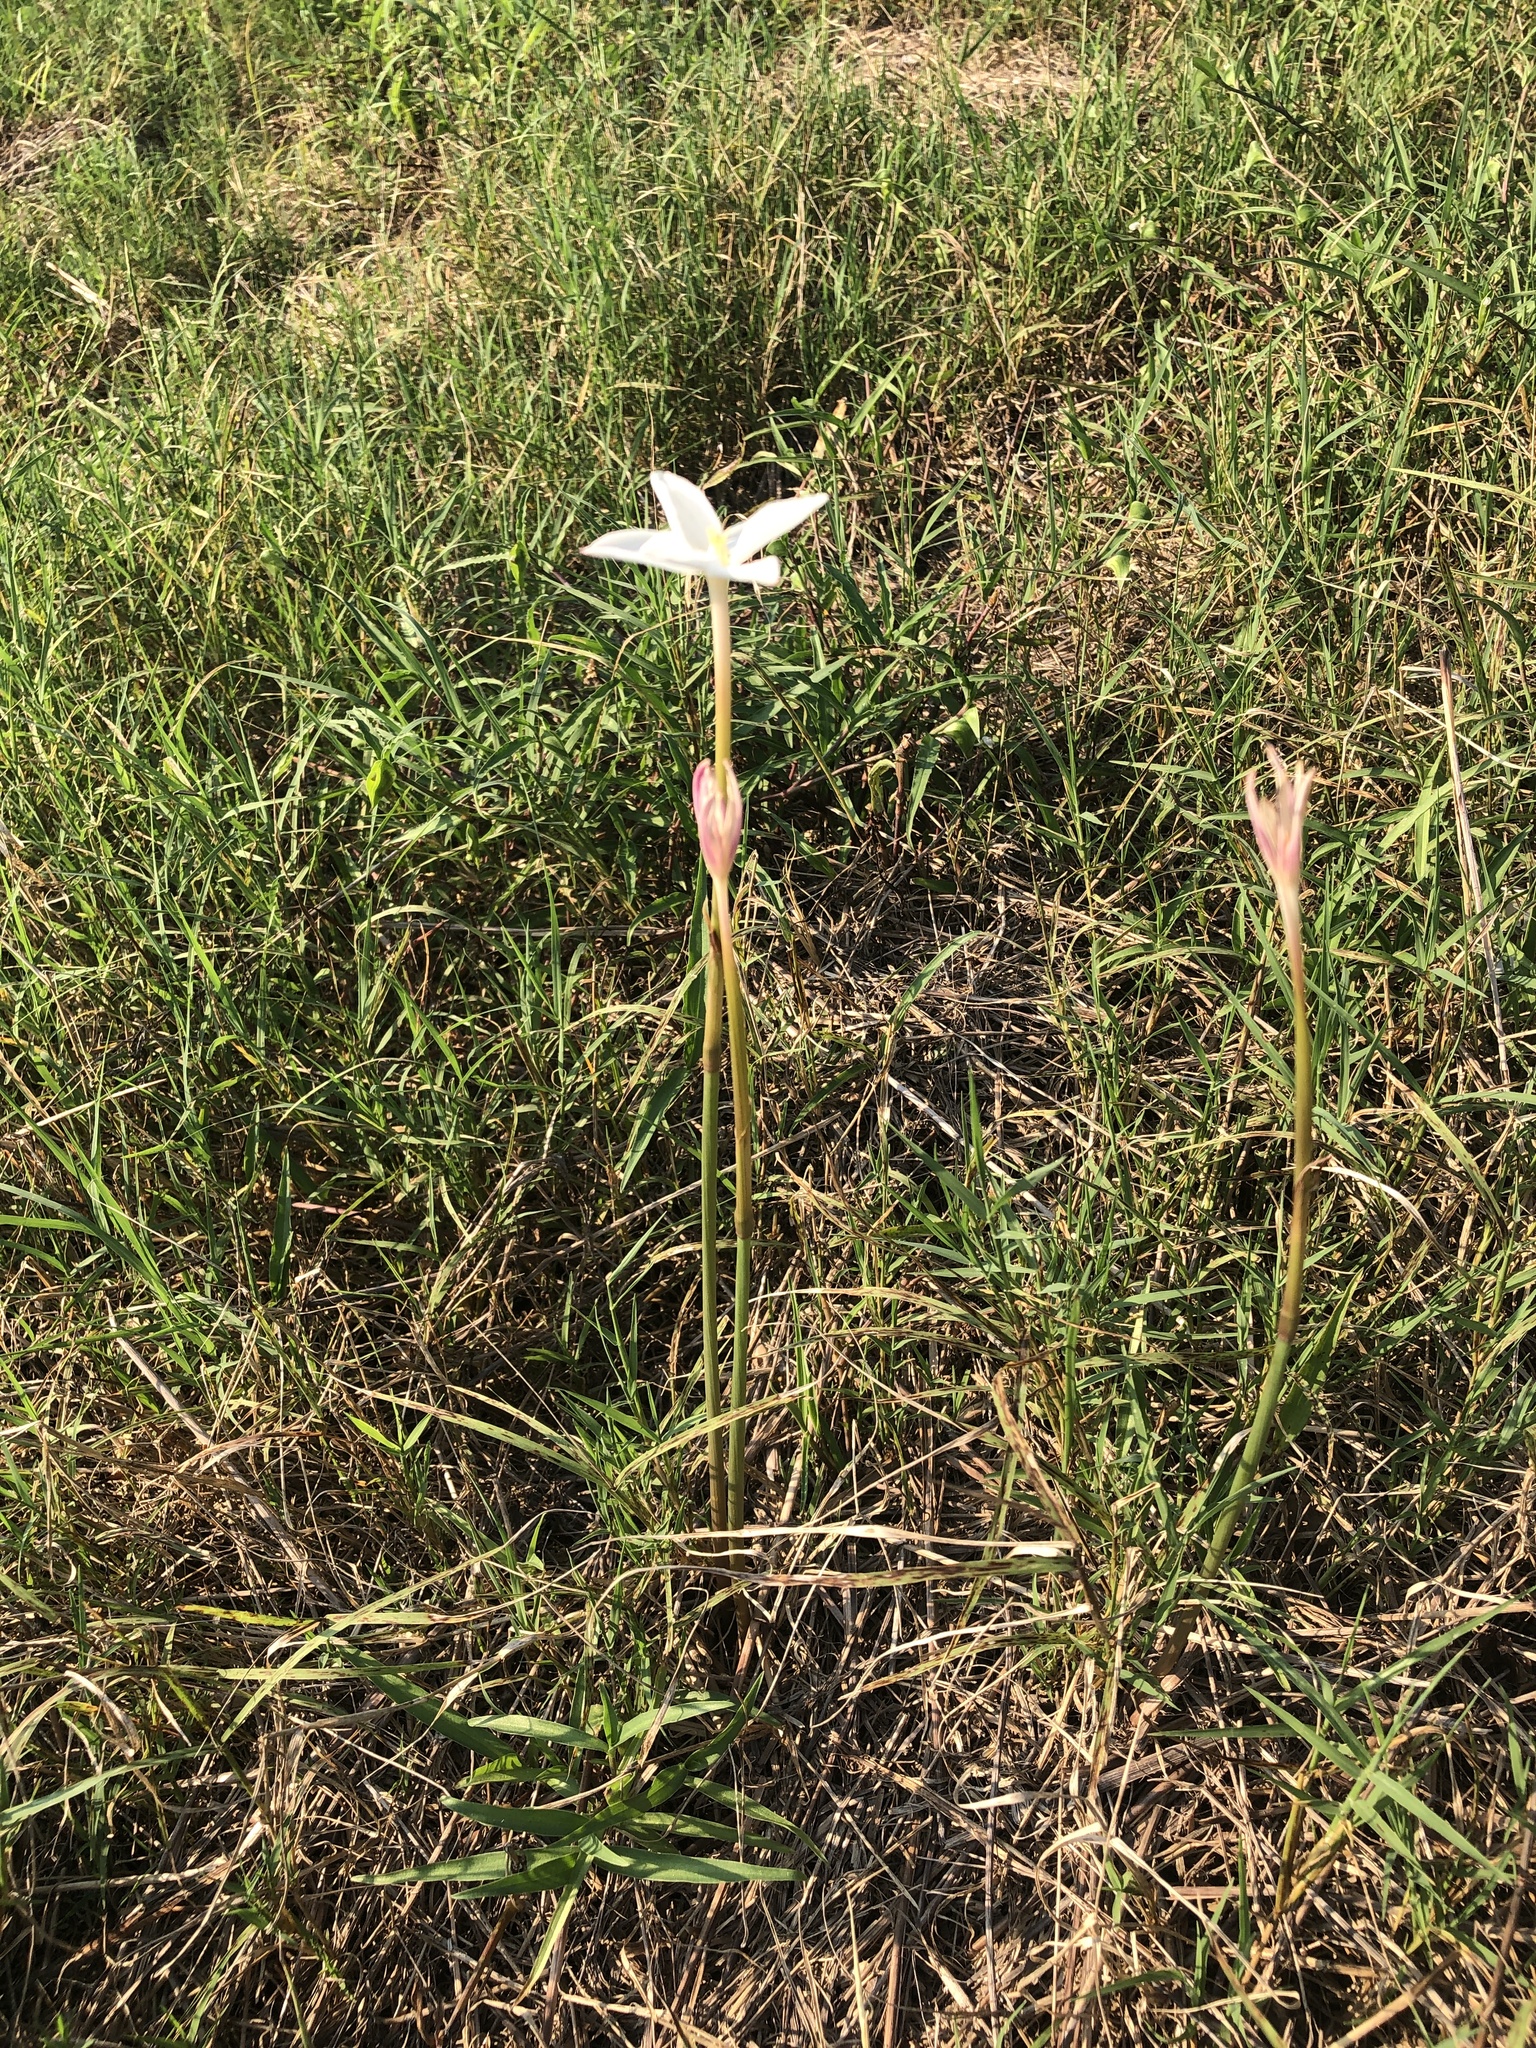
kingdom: Plantae
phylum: Tracheophyta
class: Liliopsida
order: Asparagales
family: Amaryllidaceae
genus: Zephyranthes
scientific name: Zephyranthes chlorosolen
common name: Evening rain-lily
